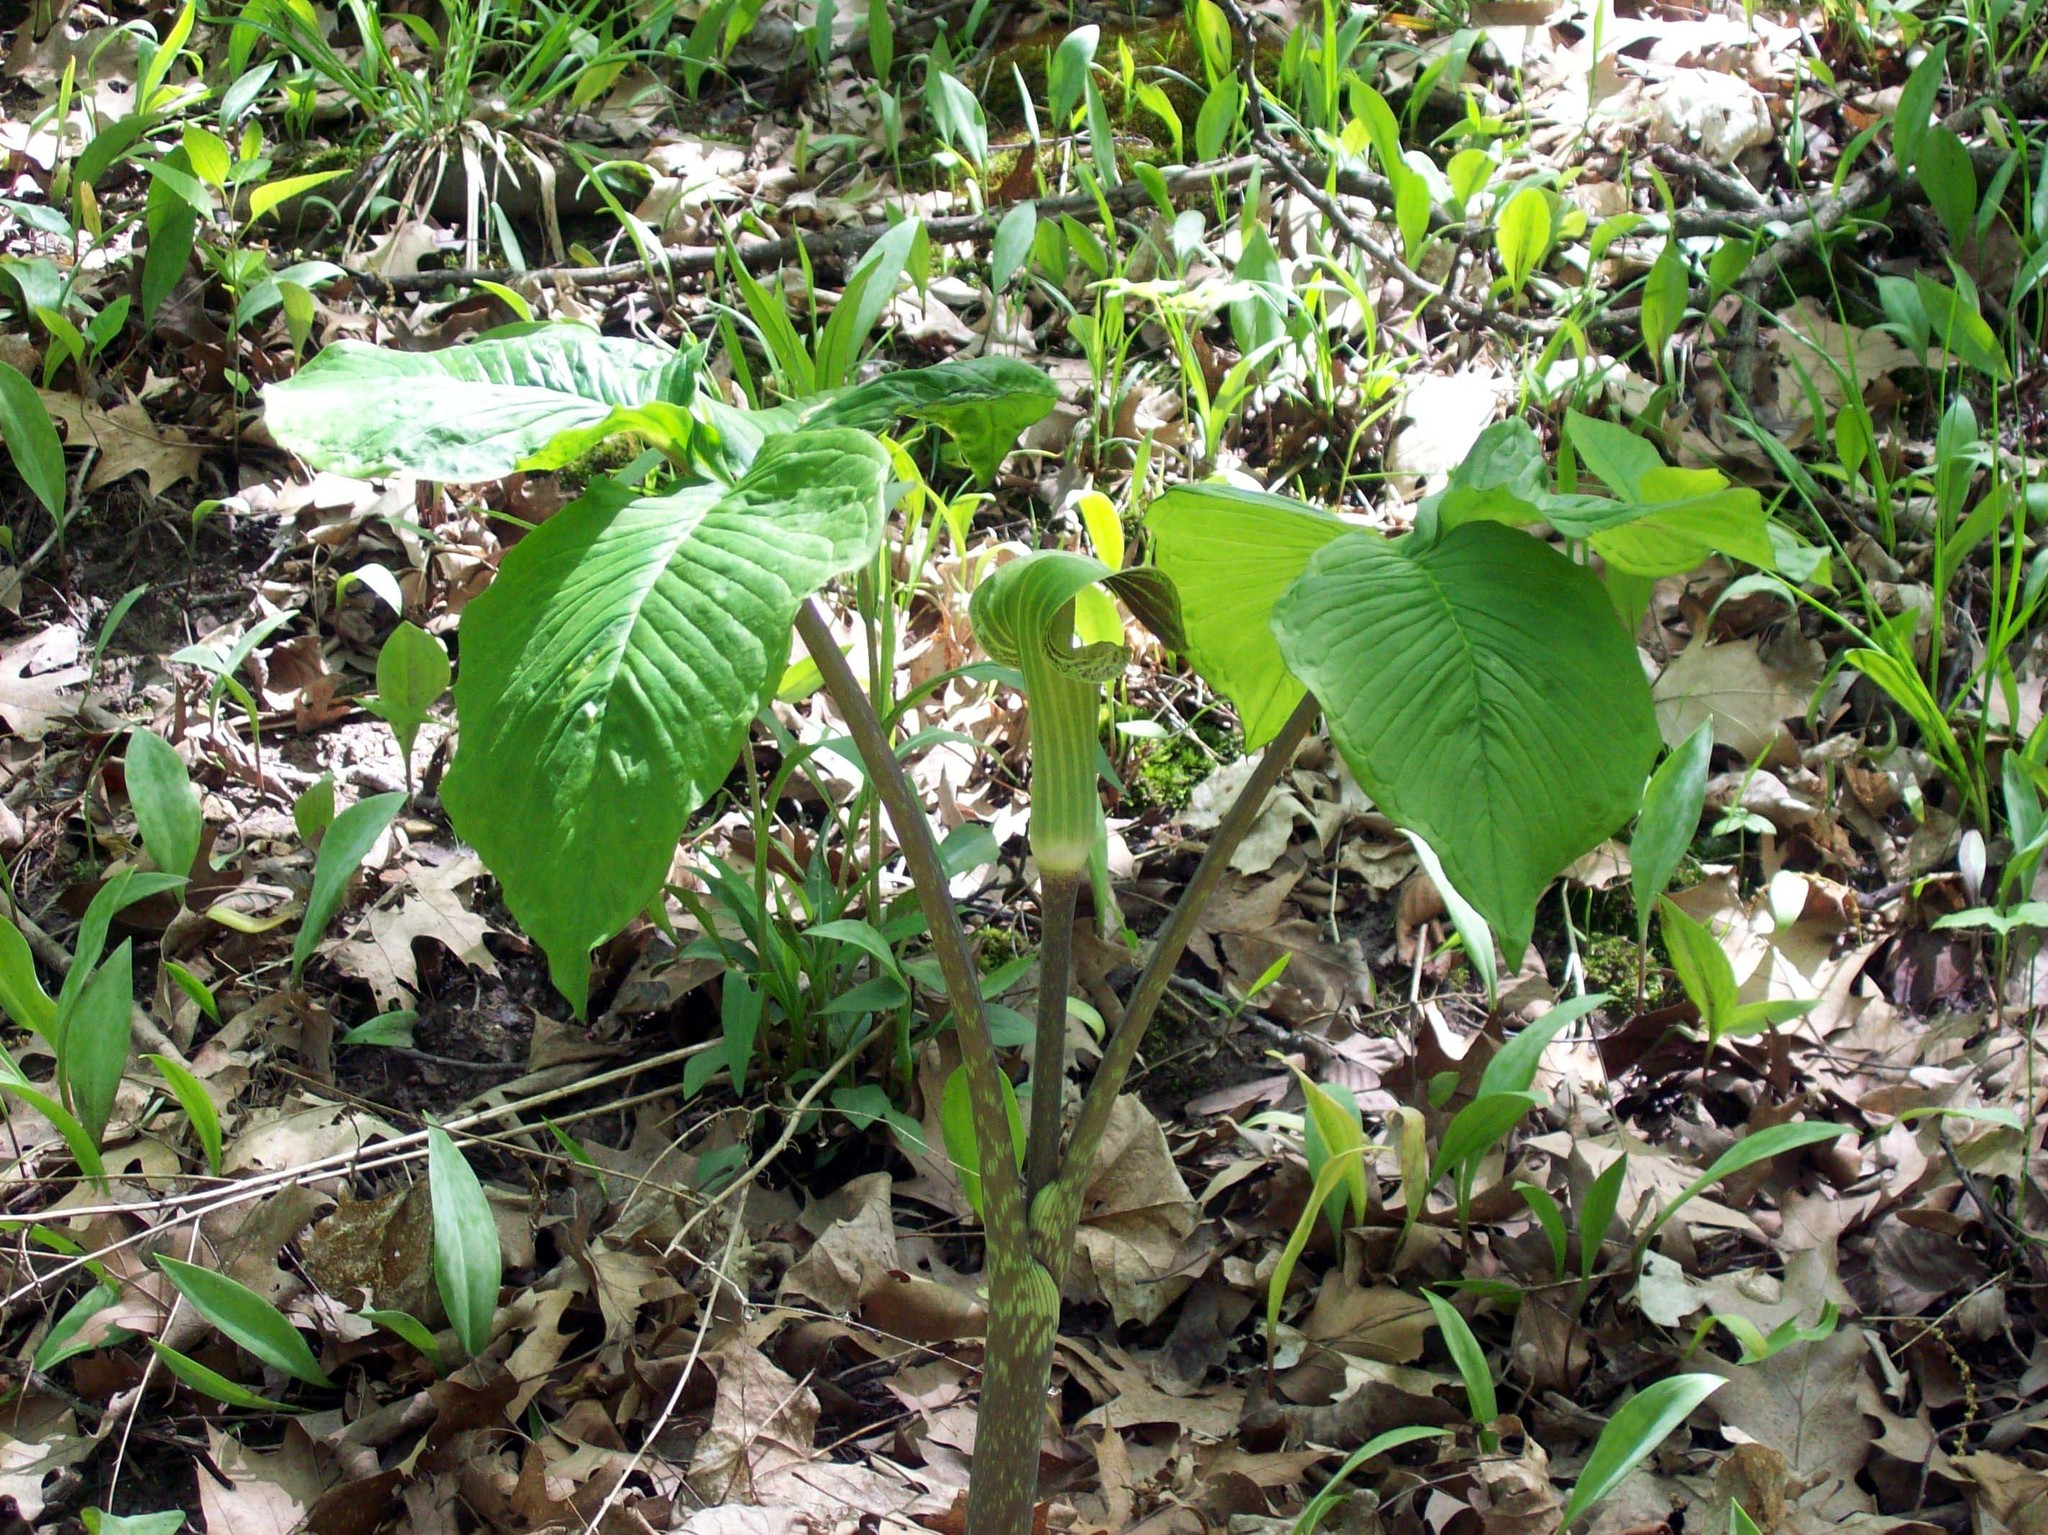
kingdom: Plantae
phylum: Tracheophyta
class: Liliopsida
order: Alismatales
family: Araceae
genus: Arisaema
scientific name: Arisaema triphyllum
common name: Jack-in-the-pulpit
